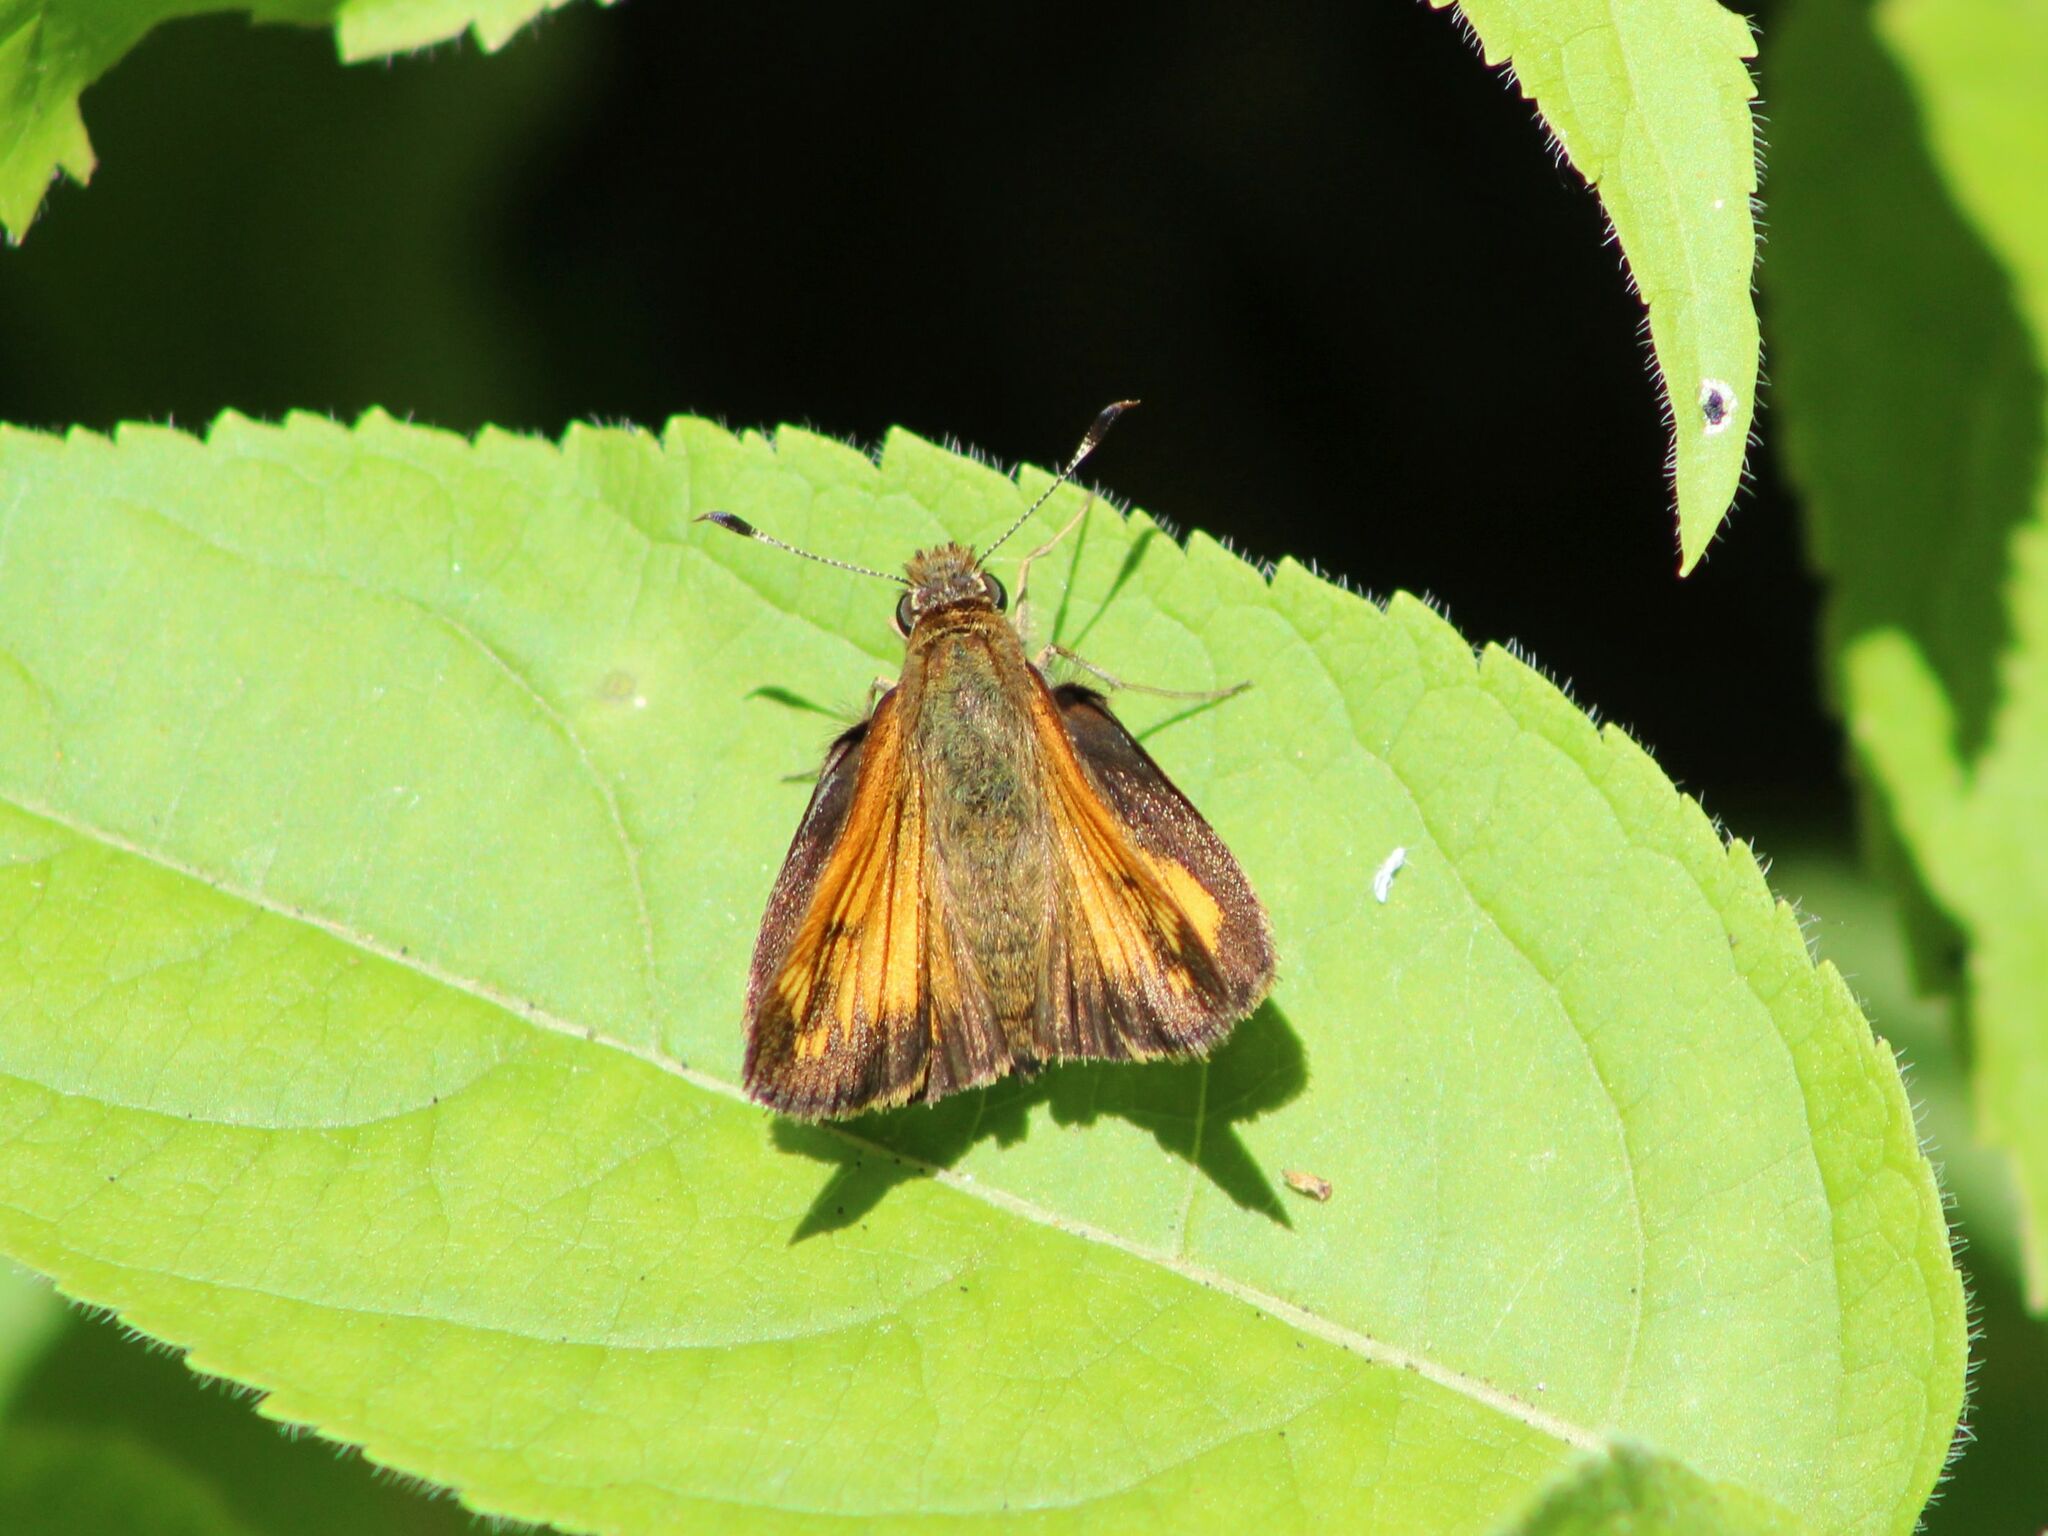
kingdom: Animalia
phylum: Arthropoda
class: Insecta
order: Lepidoptera
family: Hesperiidae
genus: Lon
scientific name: Lon hobomok
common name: Hobomok skipper
